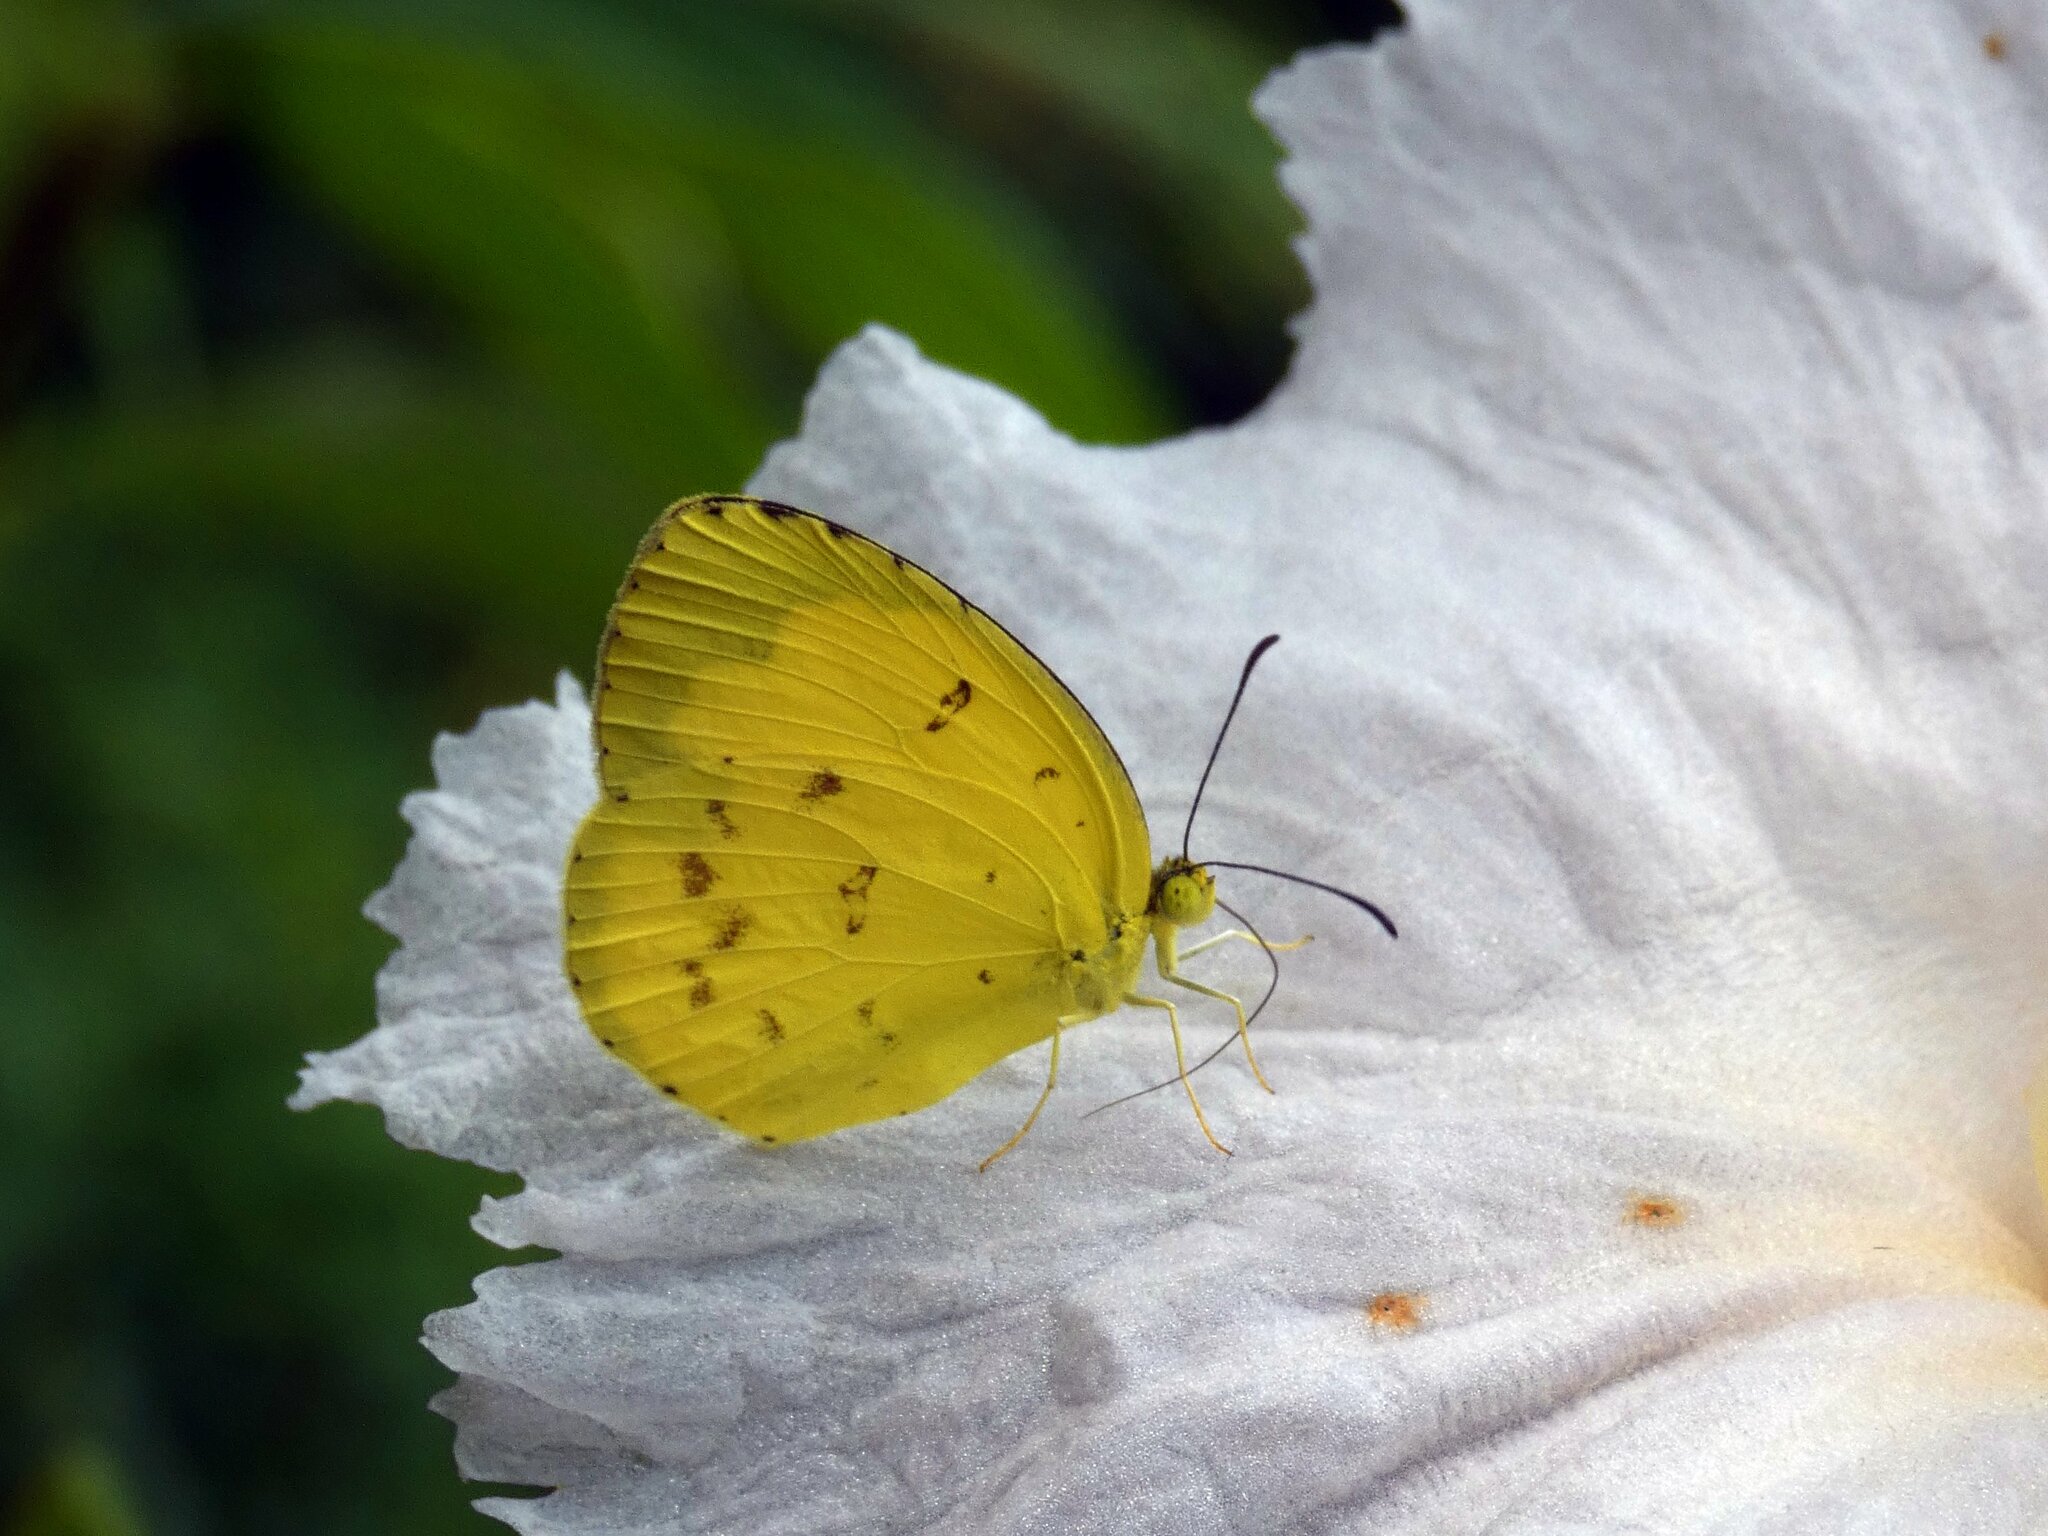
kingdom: Animalia
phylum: Arthropoda
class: Insecta
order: Lepidoptera
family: Pieridae
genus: Eurema
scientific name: Eurema hecabe
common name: Pale grass yellow
